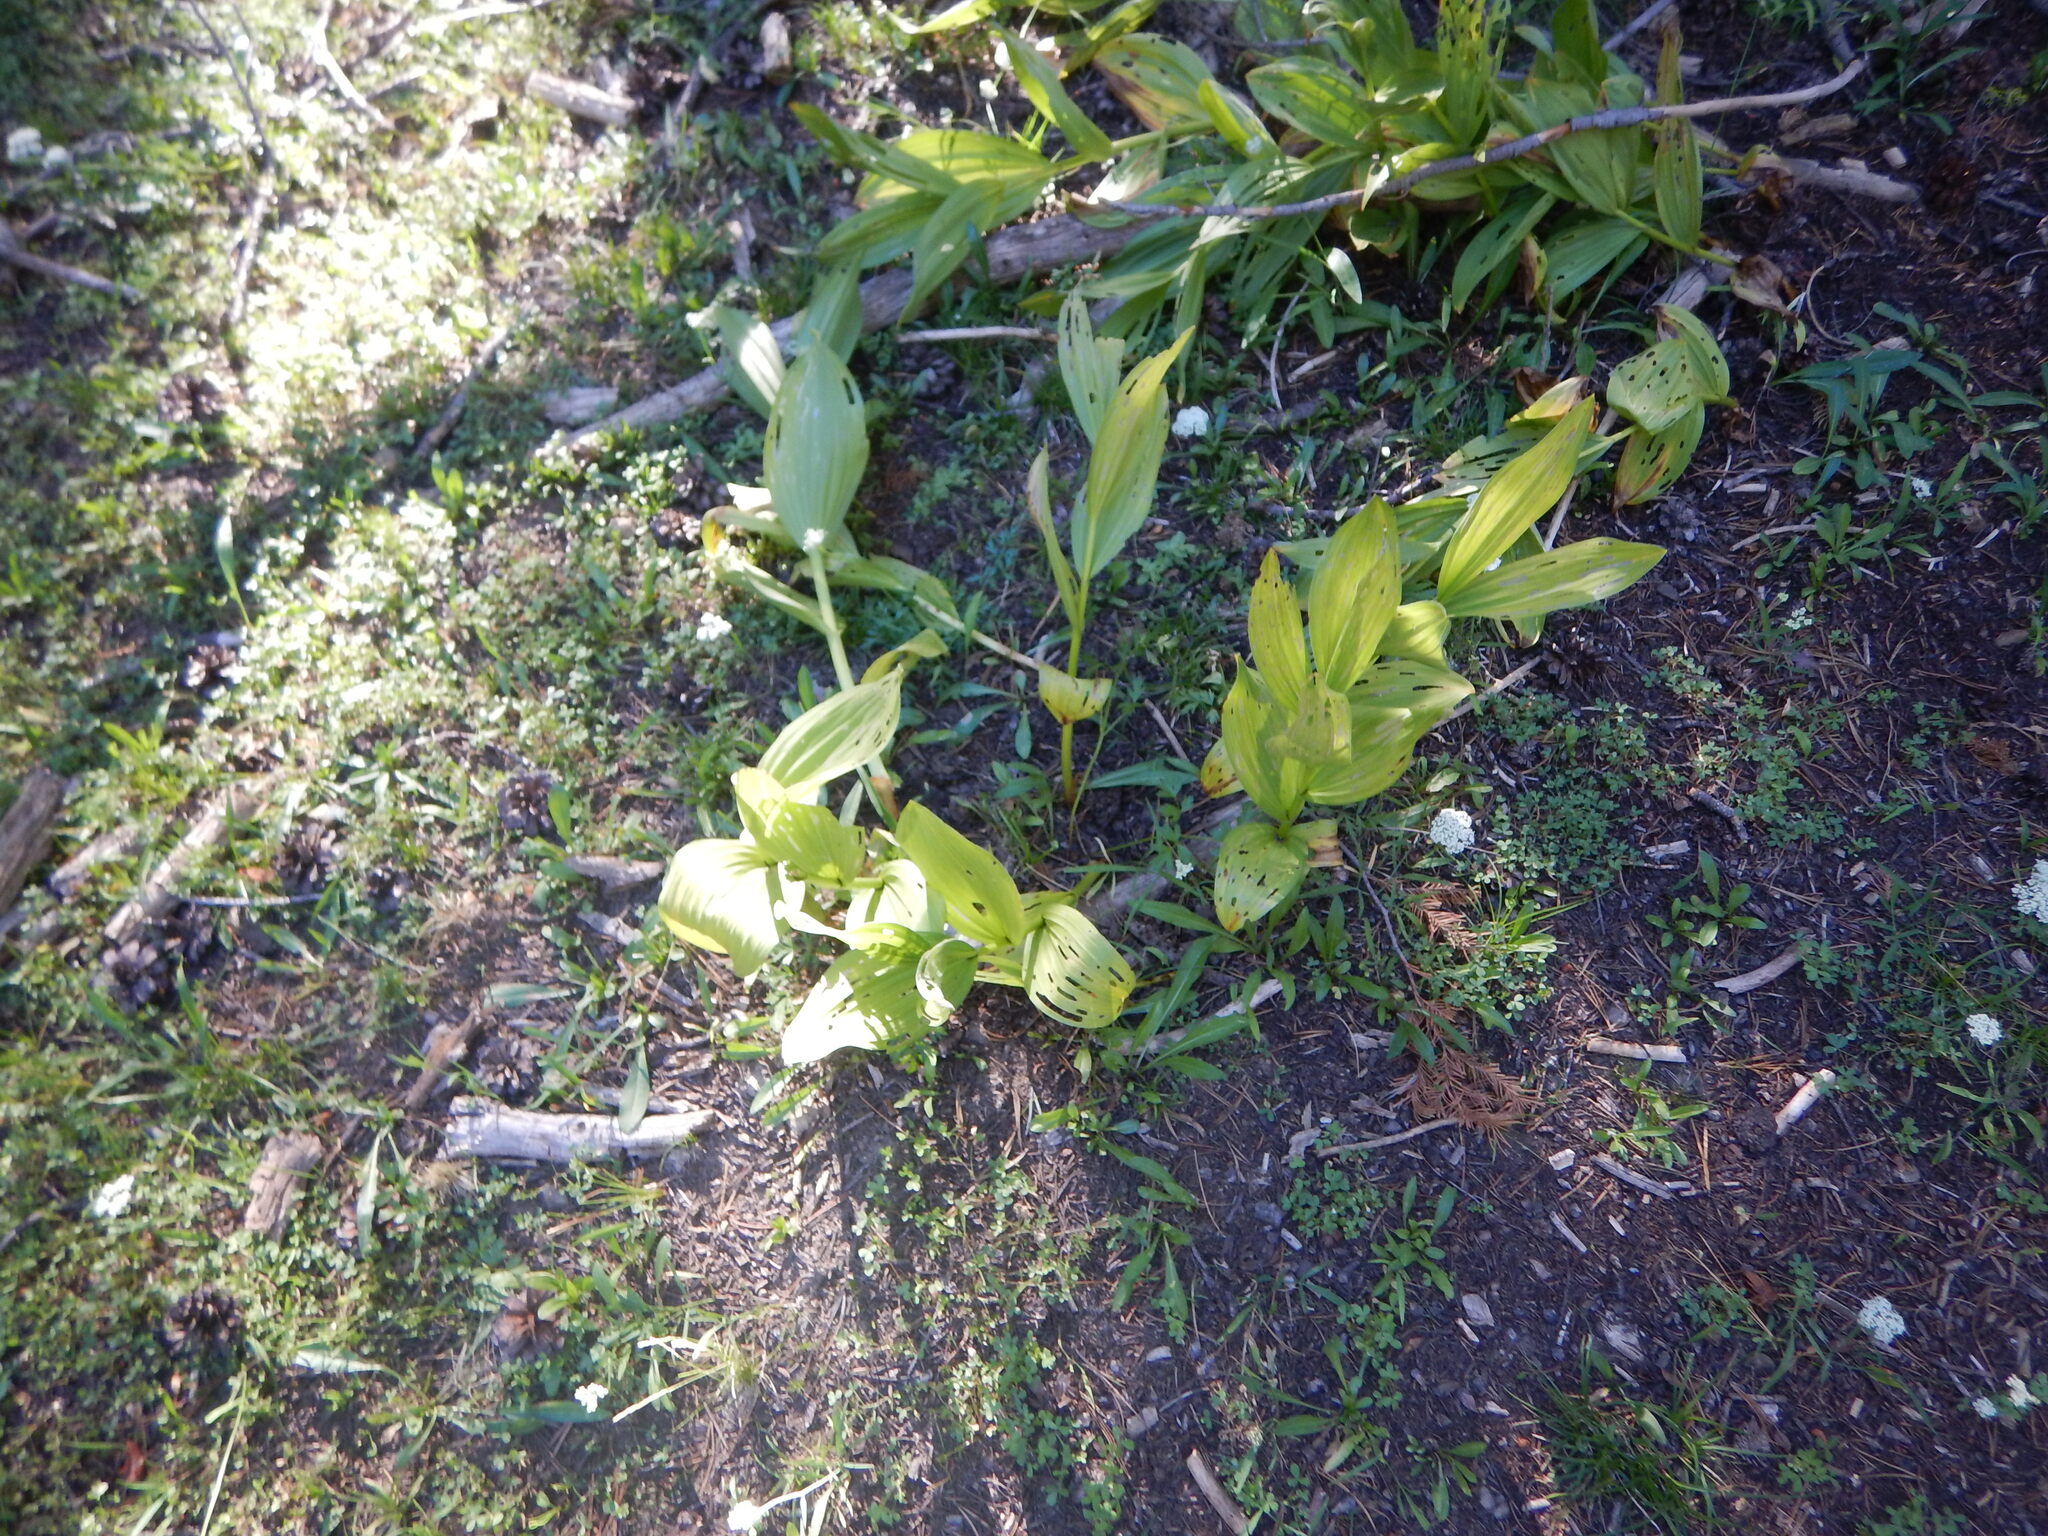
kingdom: Plantae
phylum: Tracheophyta
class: Liliopsida
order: Liliales
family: Melanthiaceae
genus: Veratrum
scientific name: Veratrum californicum
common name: California veratrum
